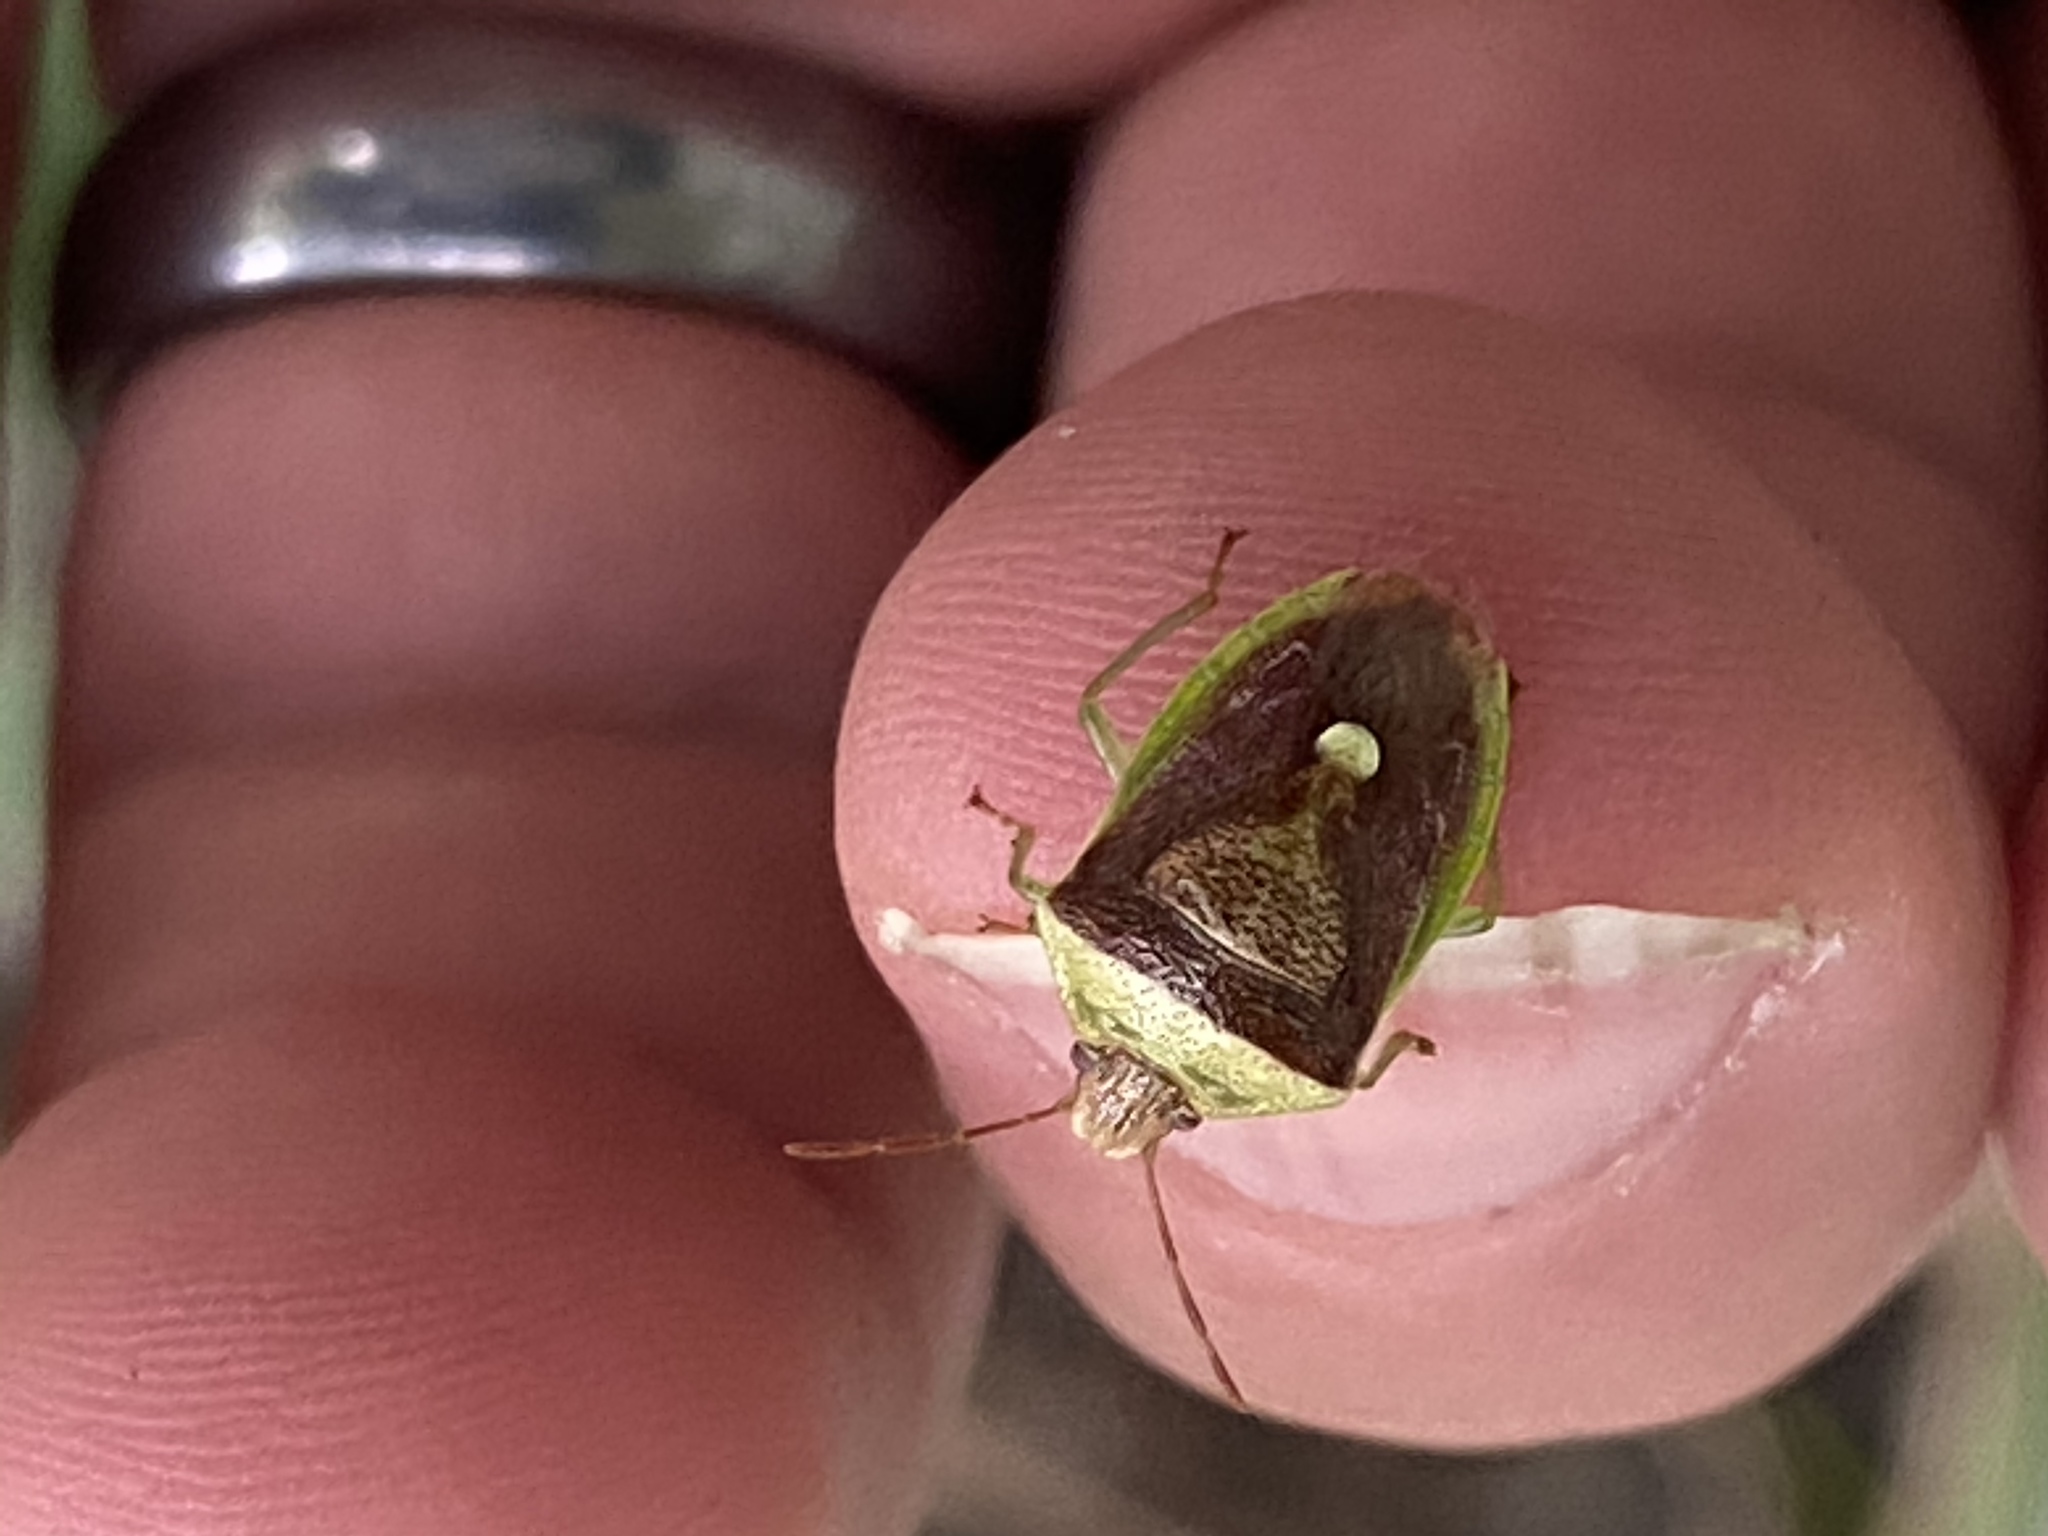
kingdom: Animalia
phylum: Arthropoda
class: Insecta
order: Hemiptera
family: Pentatomidae
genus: Banasa
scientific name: Banasa dimidiata
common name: Green burgundy stink bug
